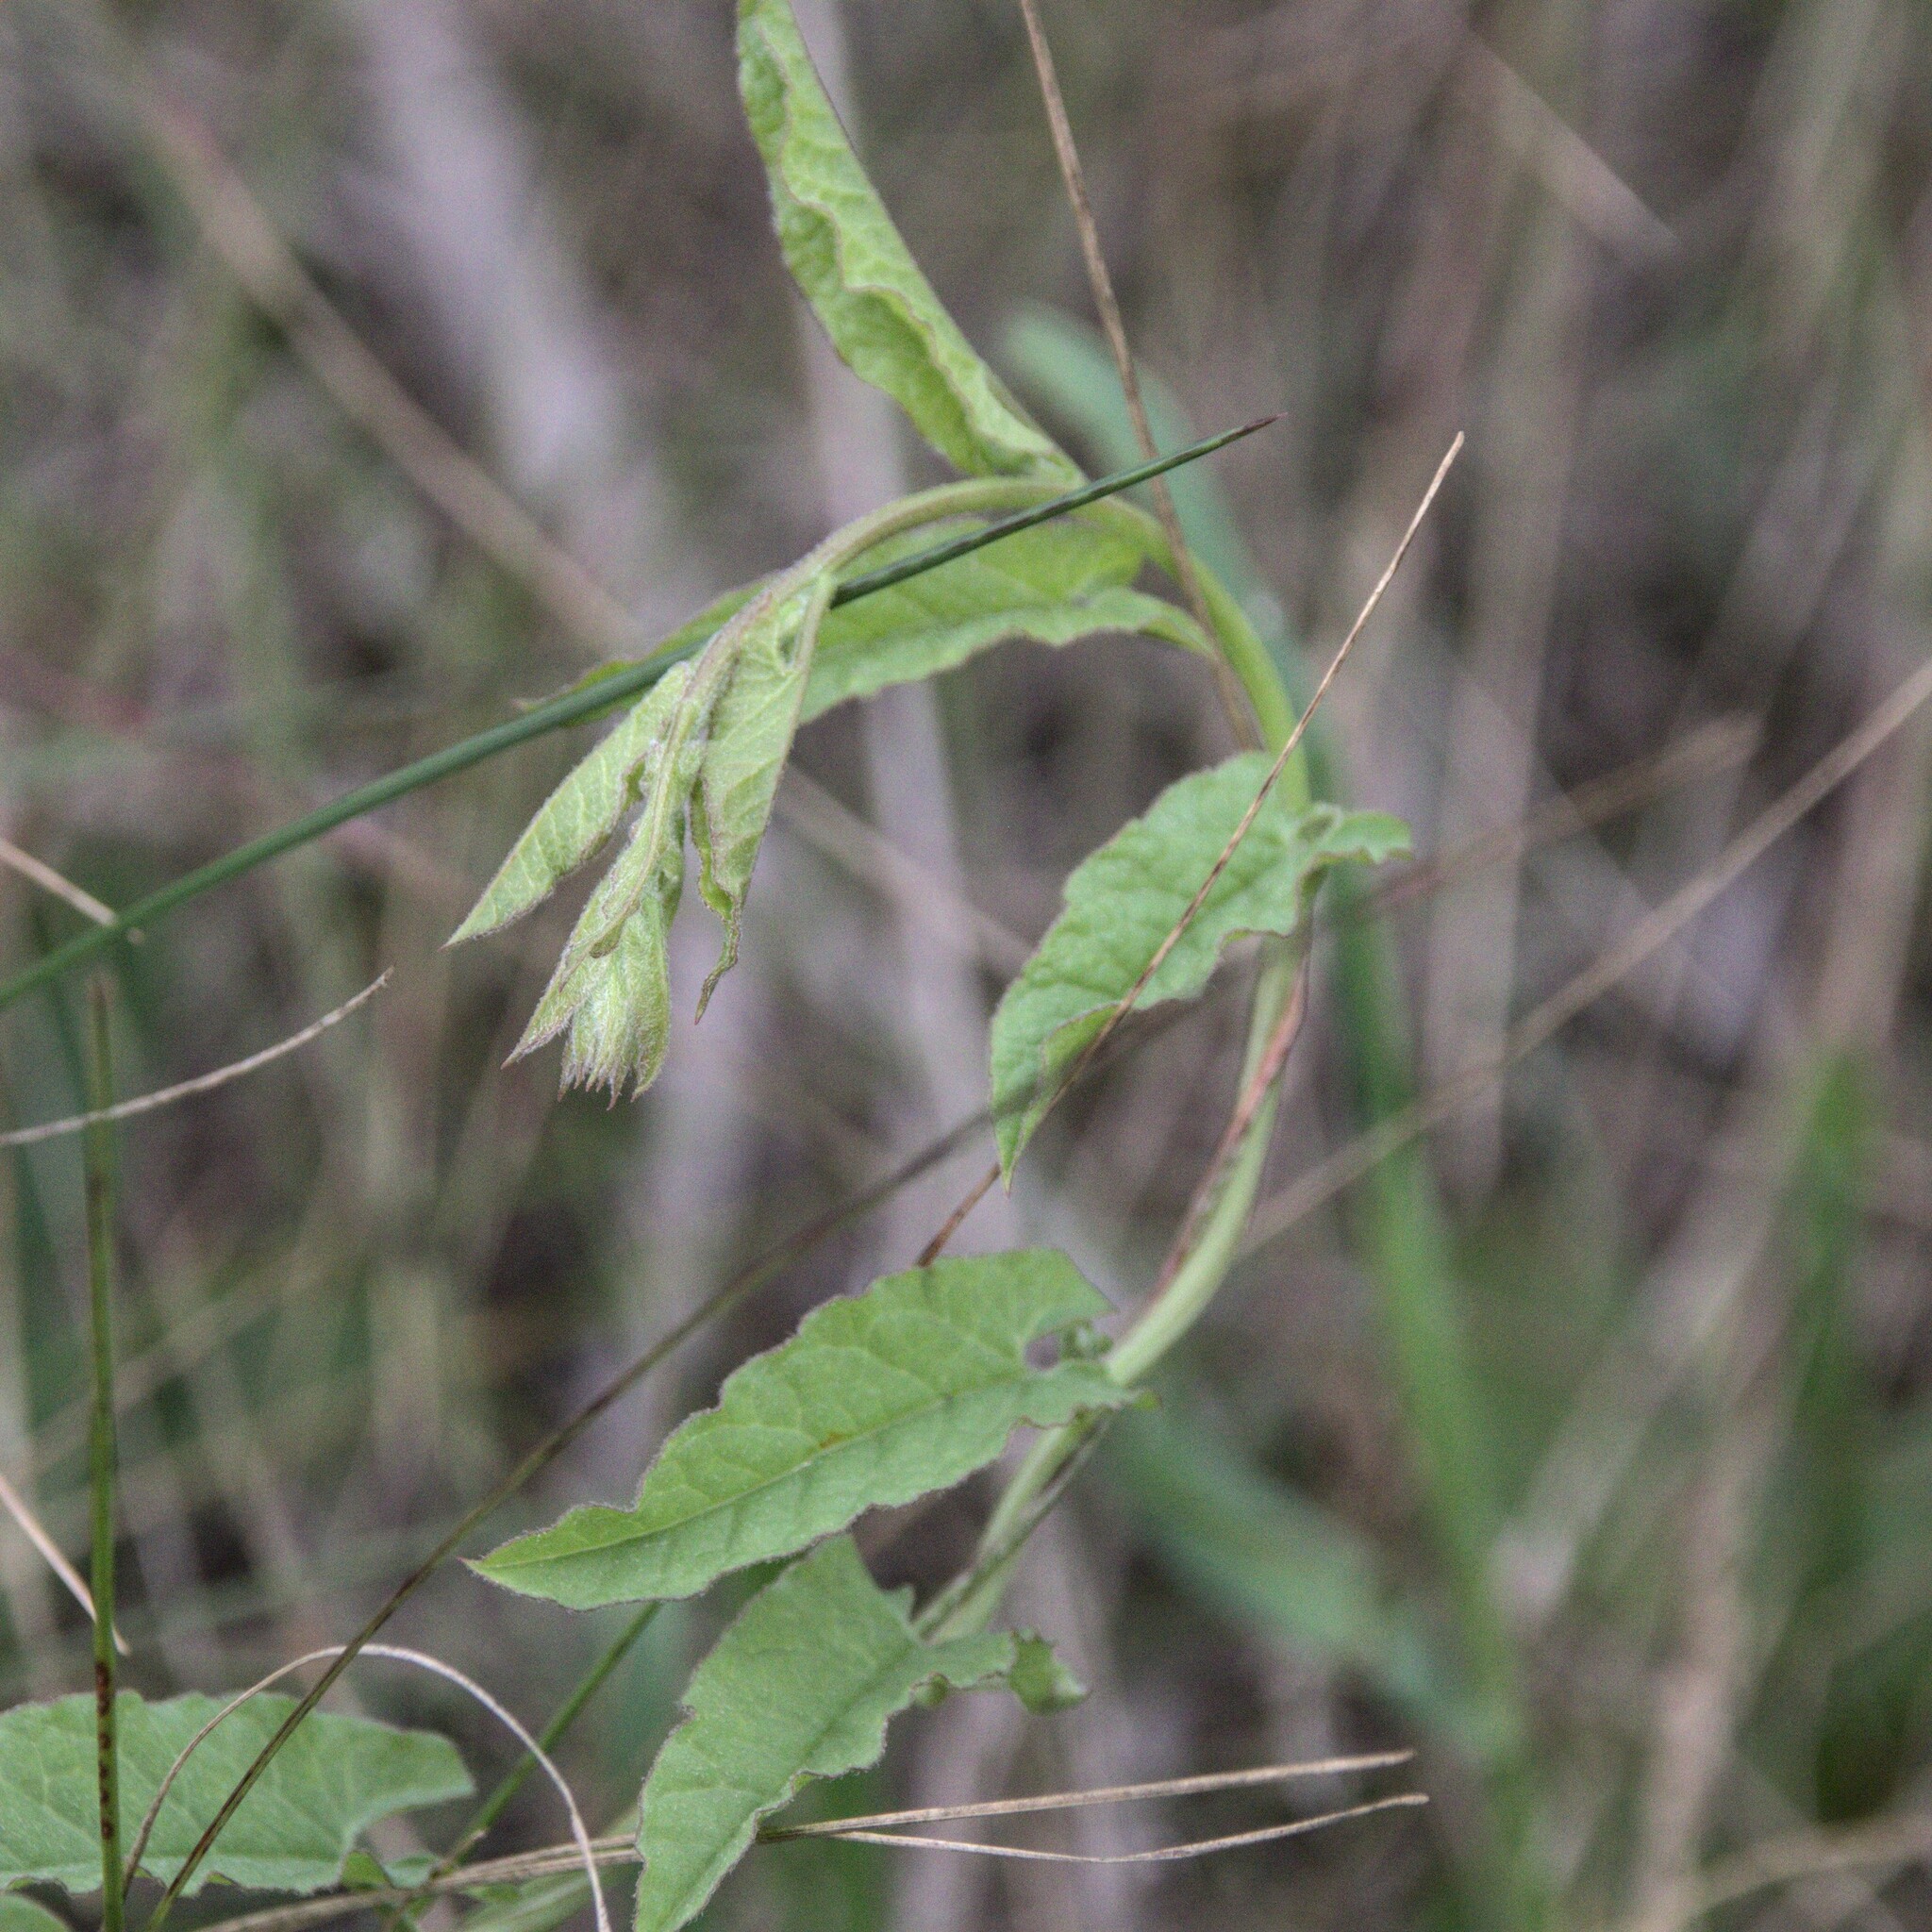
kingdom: Plantae
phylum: Tracheophyta
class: Magnoliopsida
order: Solanales
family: Convolvulaceae
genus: Convolvulus
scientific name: Convolvulus arvensis
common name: Field bindweed
